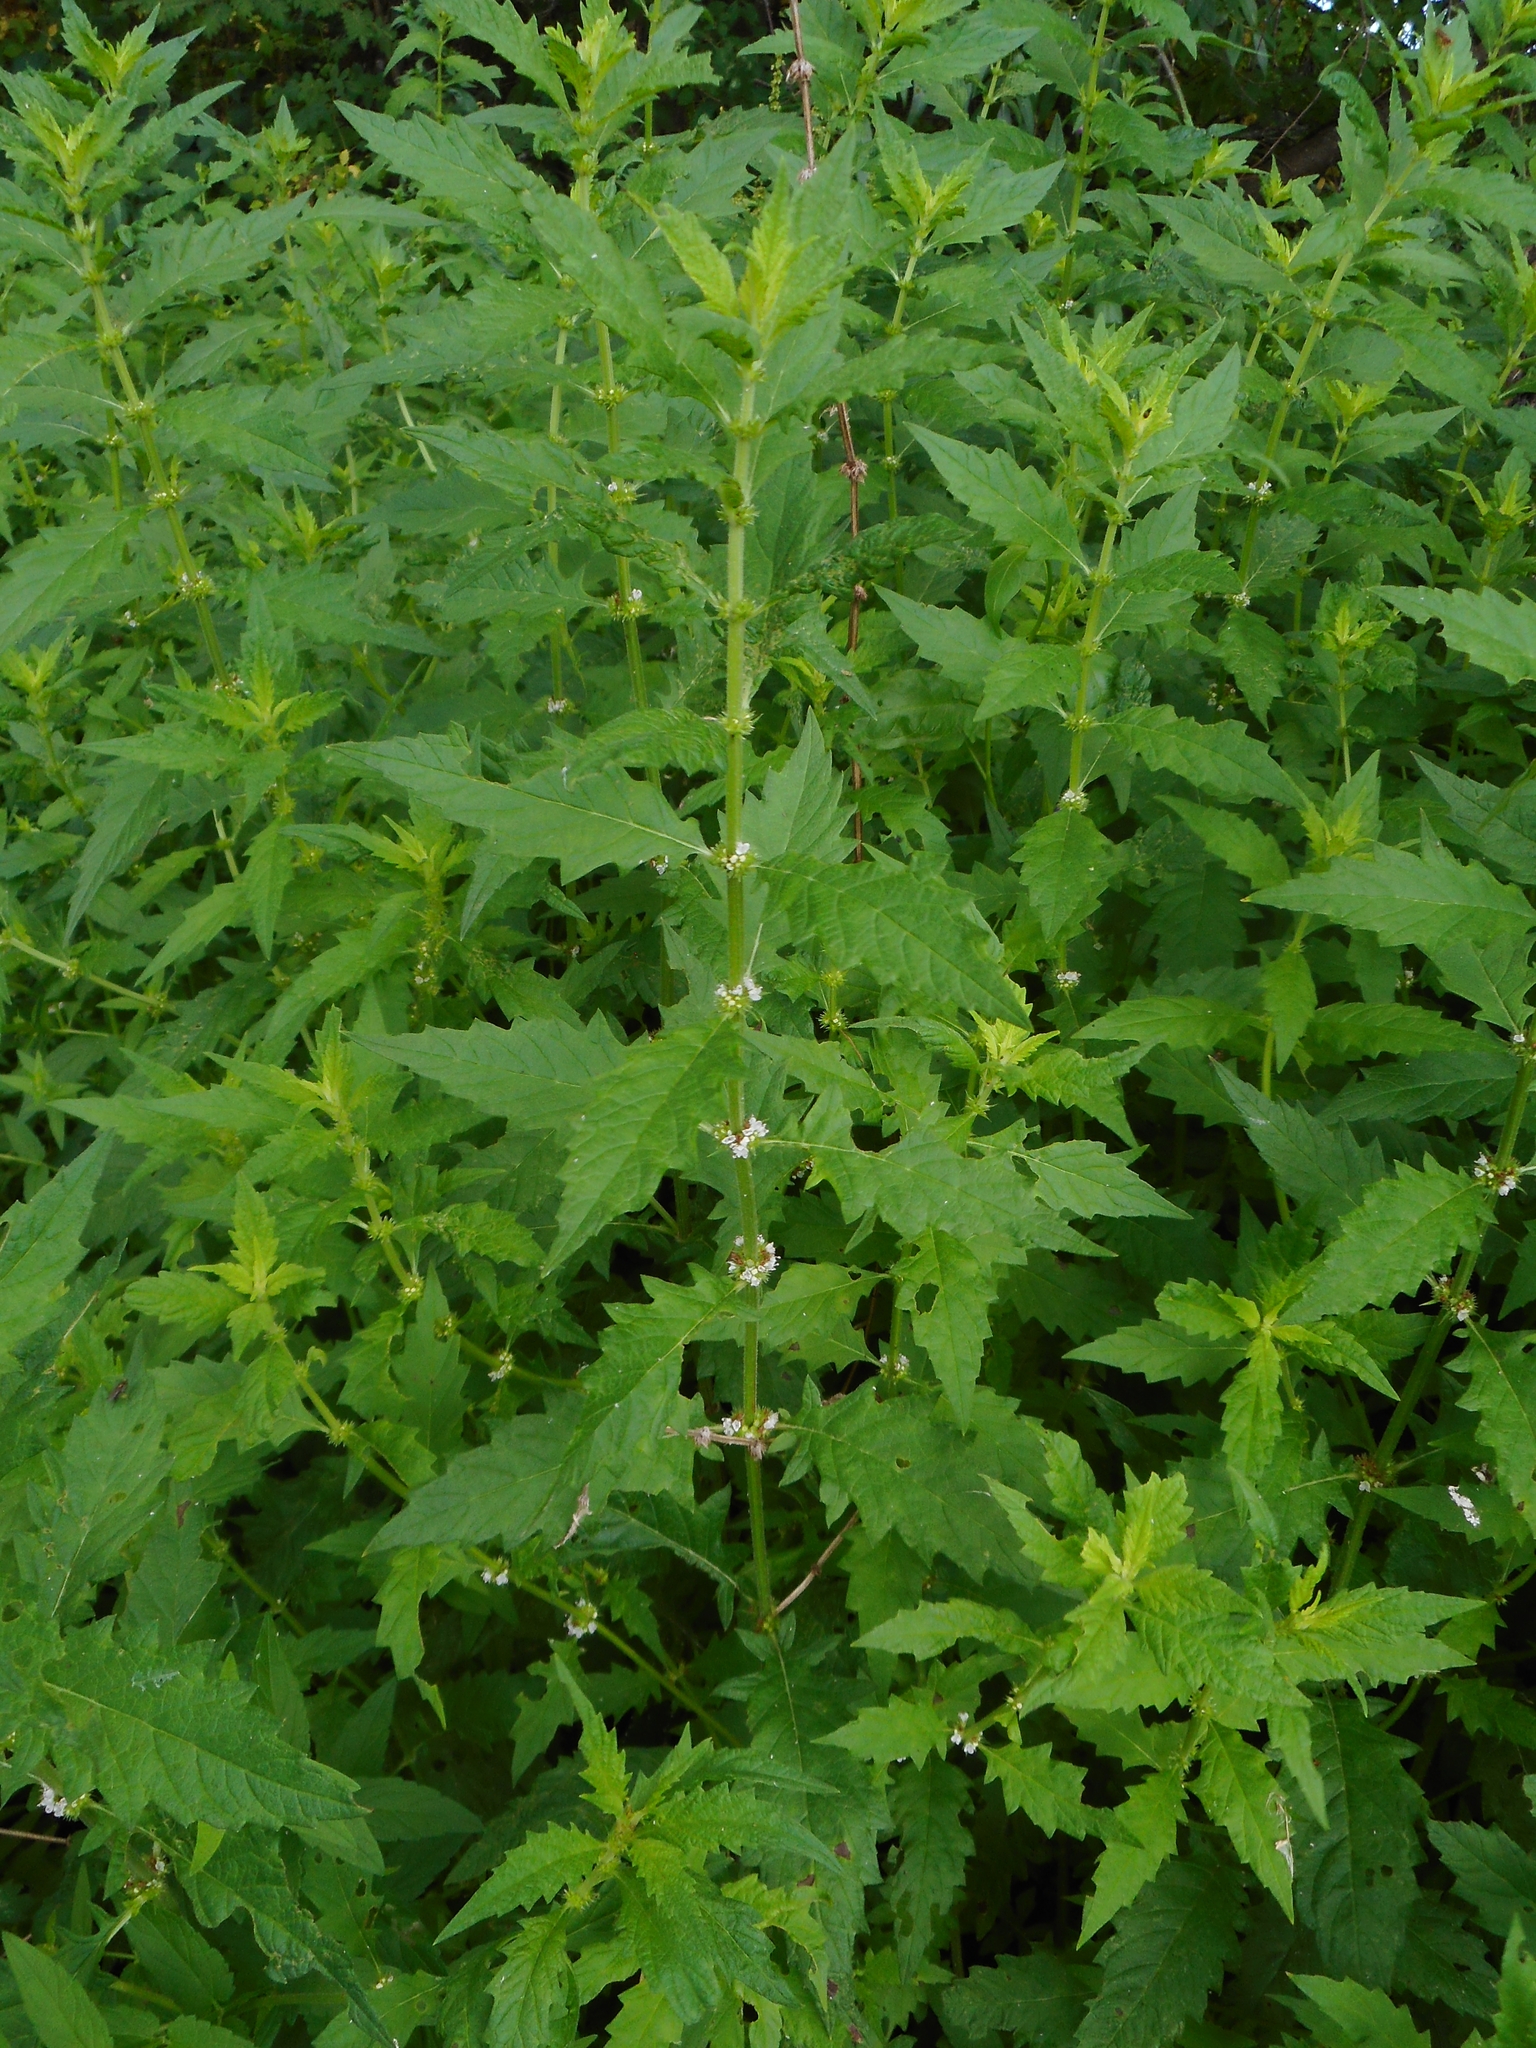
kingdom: Plantae
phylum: Tracheophyta
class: Magnoliopsida
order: Lamiales
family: Lamiaceae
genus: Lycopus
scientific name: Lycopus europaeus
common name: European bugleweed
